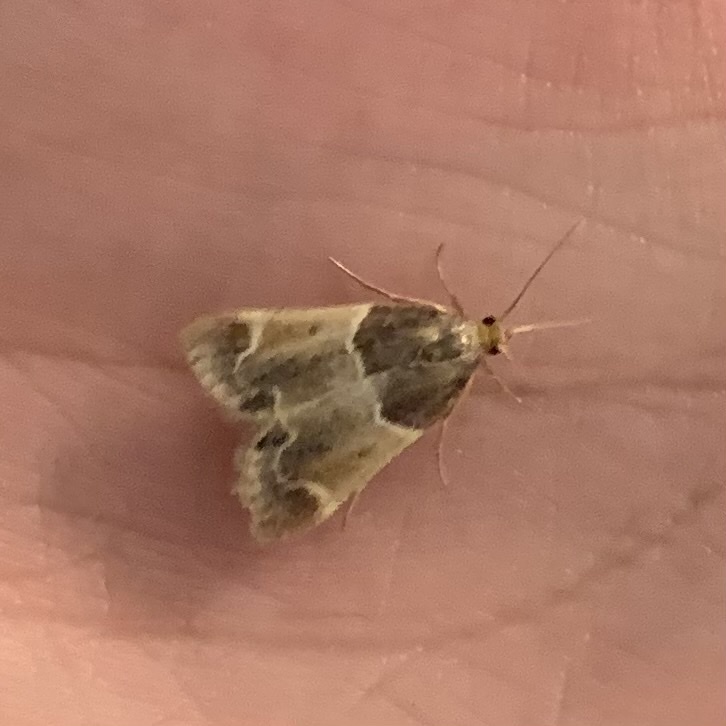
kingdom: Animalia
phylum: Arthropoda
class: Insecta
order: Lepidoptera
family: Pyralidae
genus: Pyralis
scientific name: Pyralis farinalis
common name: Meal moth
